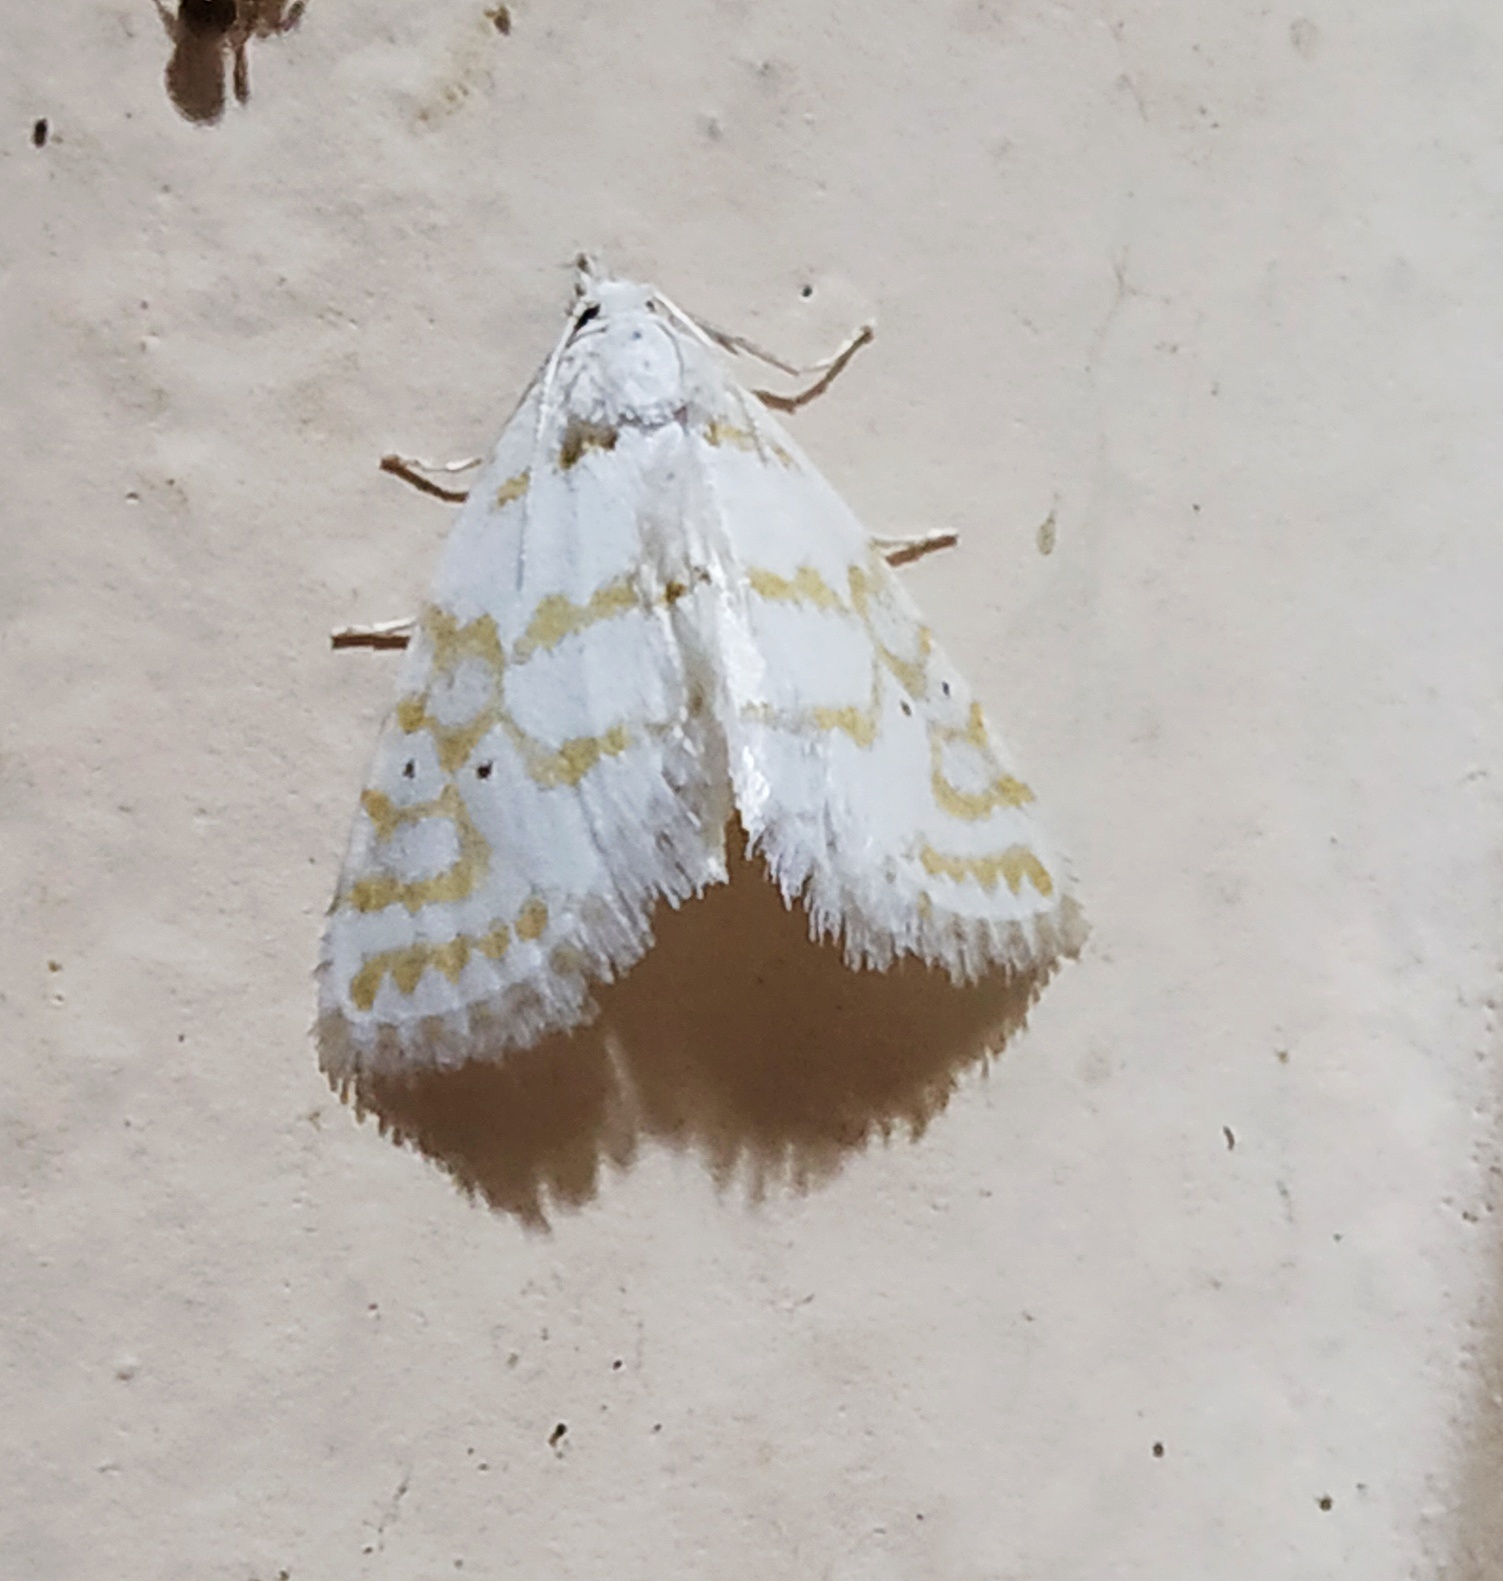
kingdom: Animalia
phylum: Arthropoda
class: Insecta
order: Lepidoptera
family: Crambidae
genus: Patissa
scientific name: Patissa fulvosparsa
